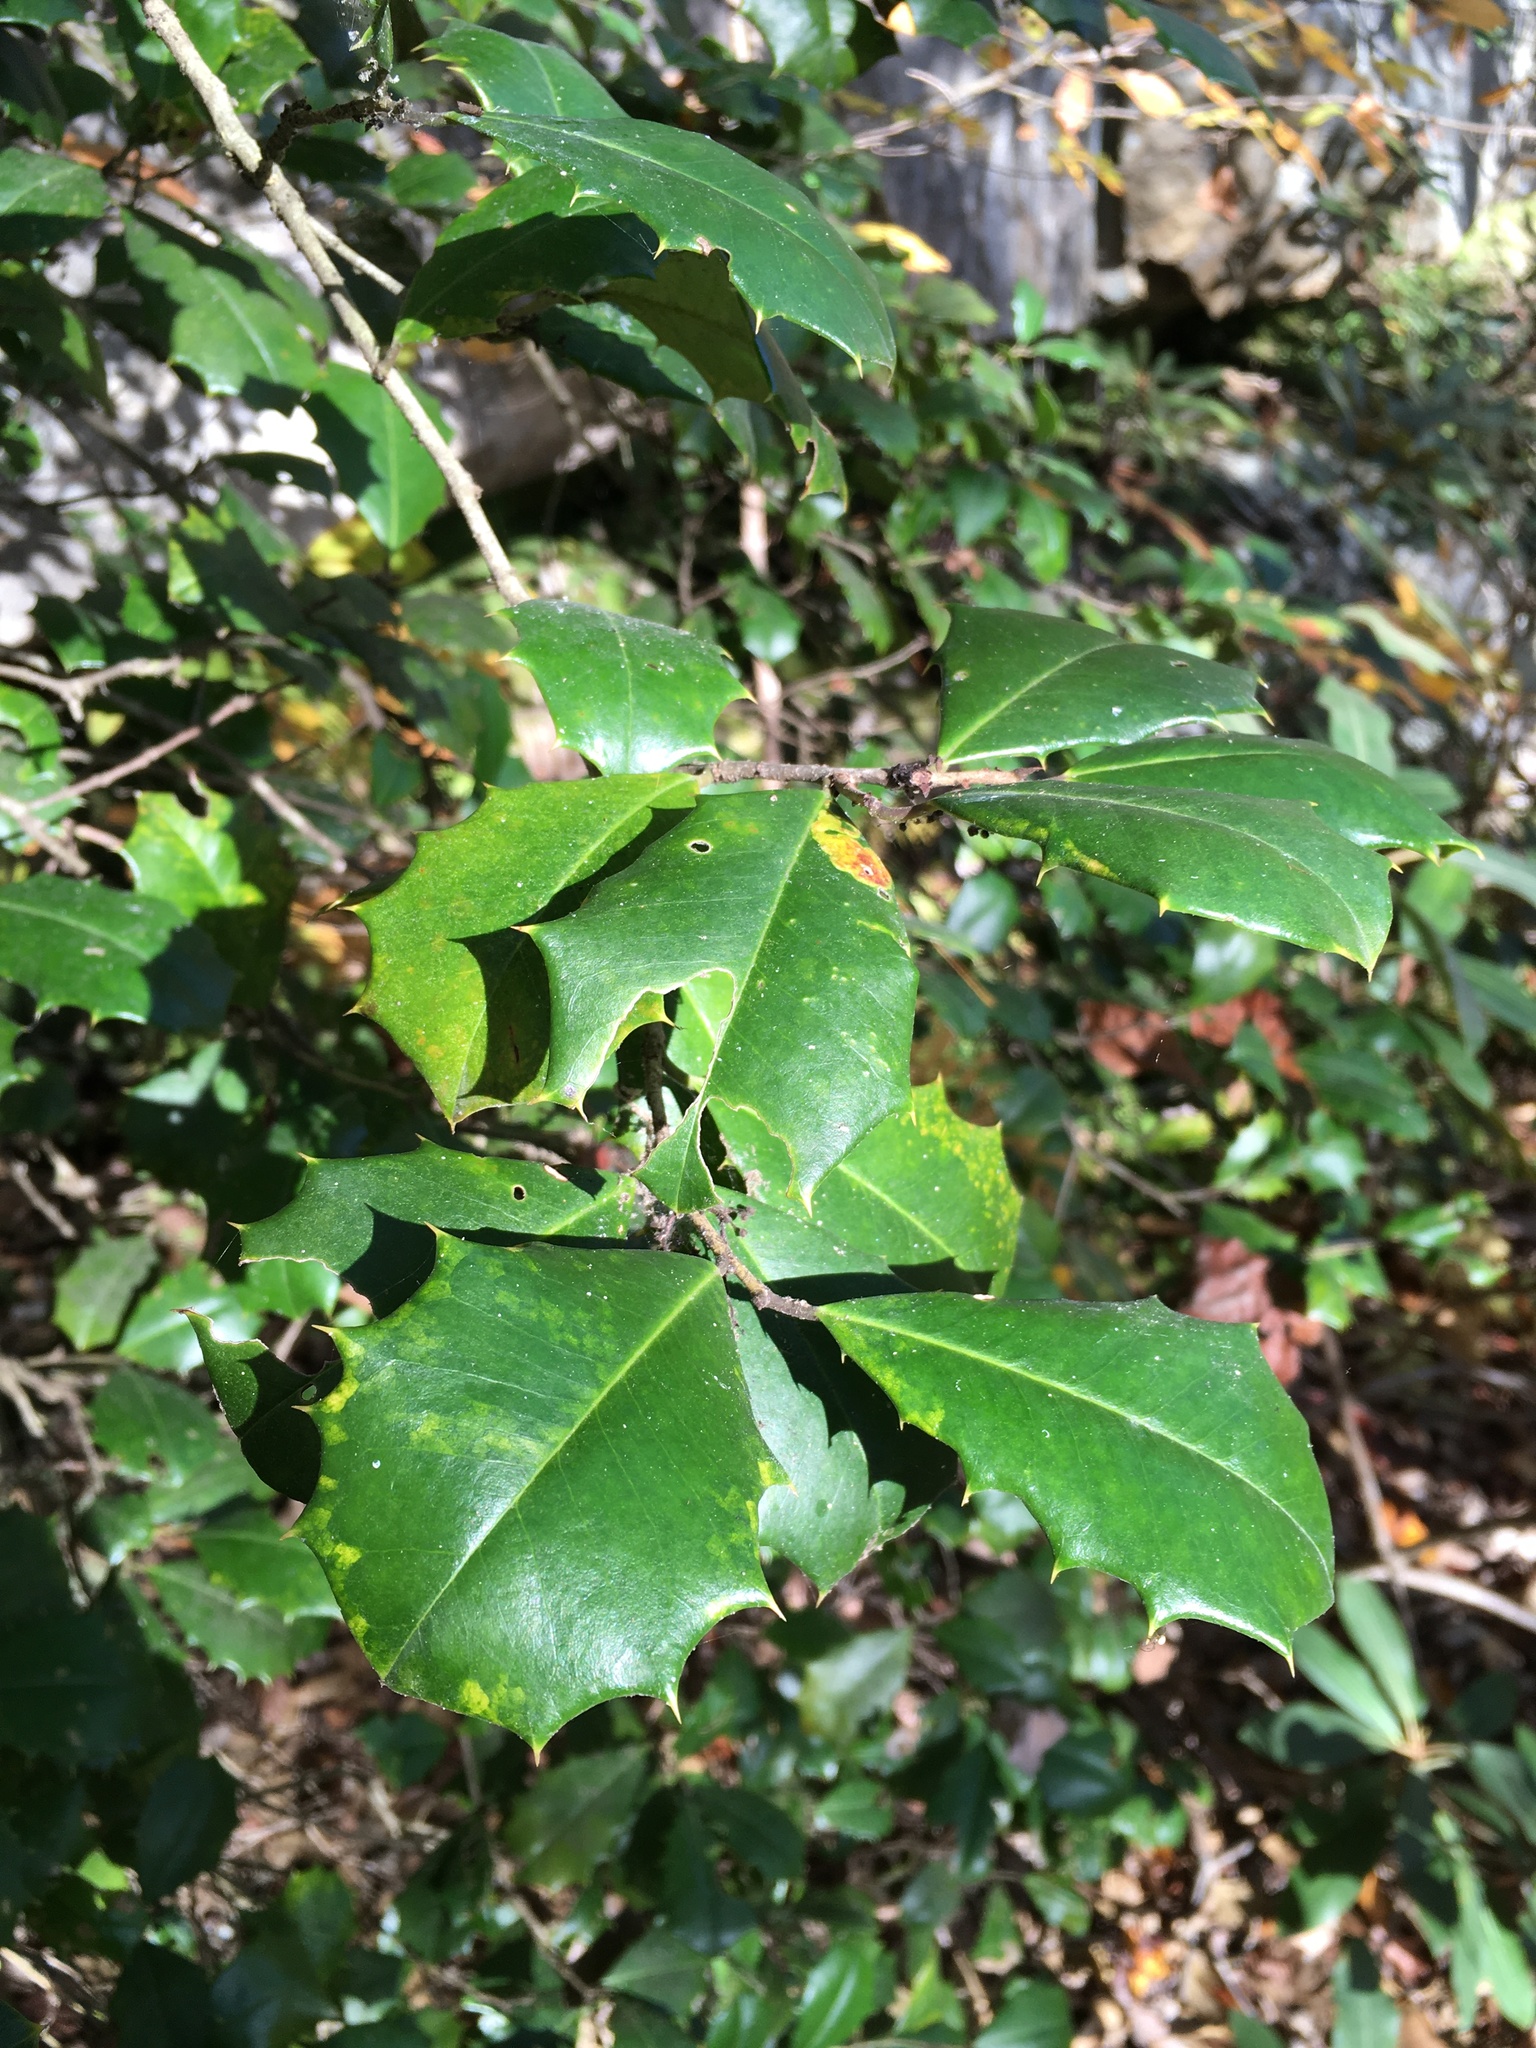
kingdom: Plantae
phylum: Tracheophyta
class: Magnoliopsida
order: Aquifoliales
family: Aquifoliaceae
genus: Ilex
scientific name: Ilex opaca
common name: American holly
